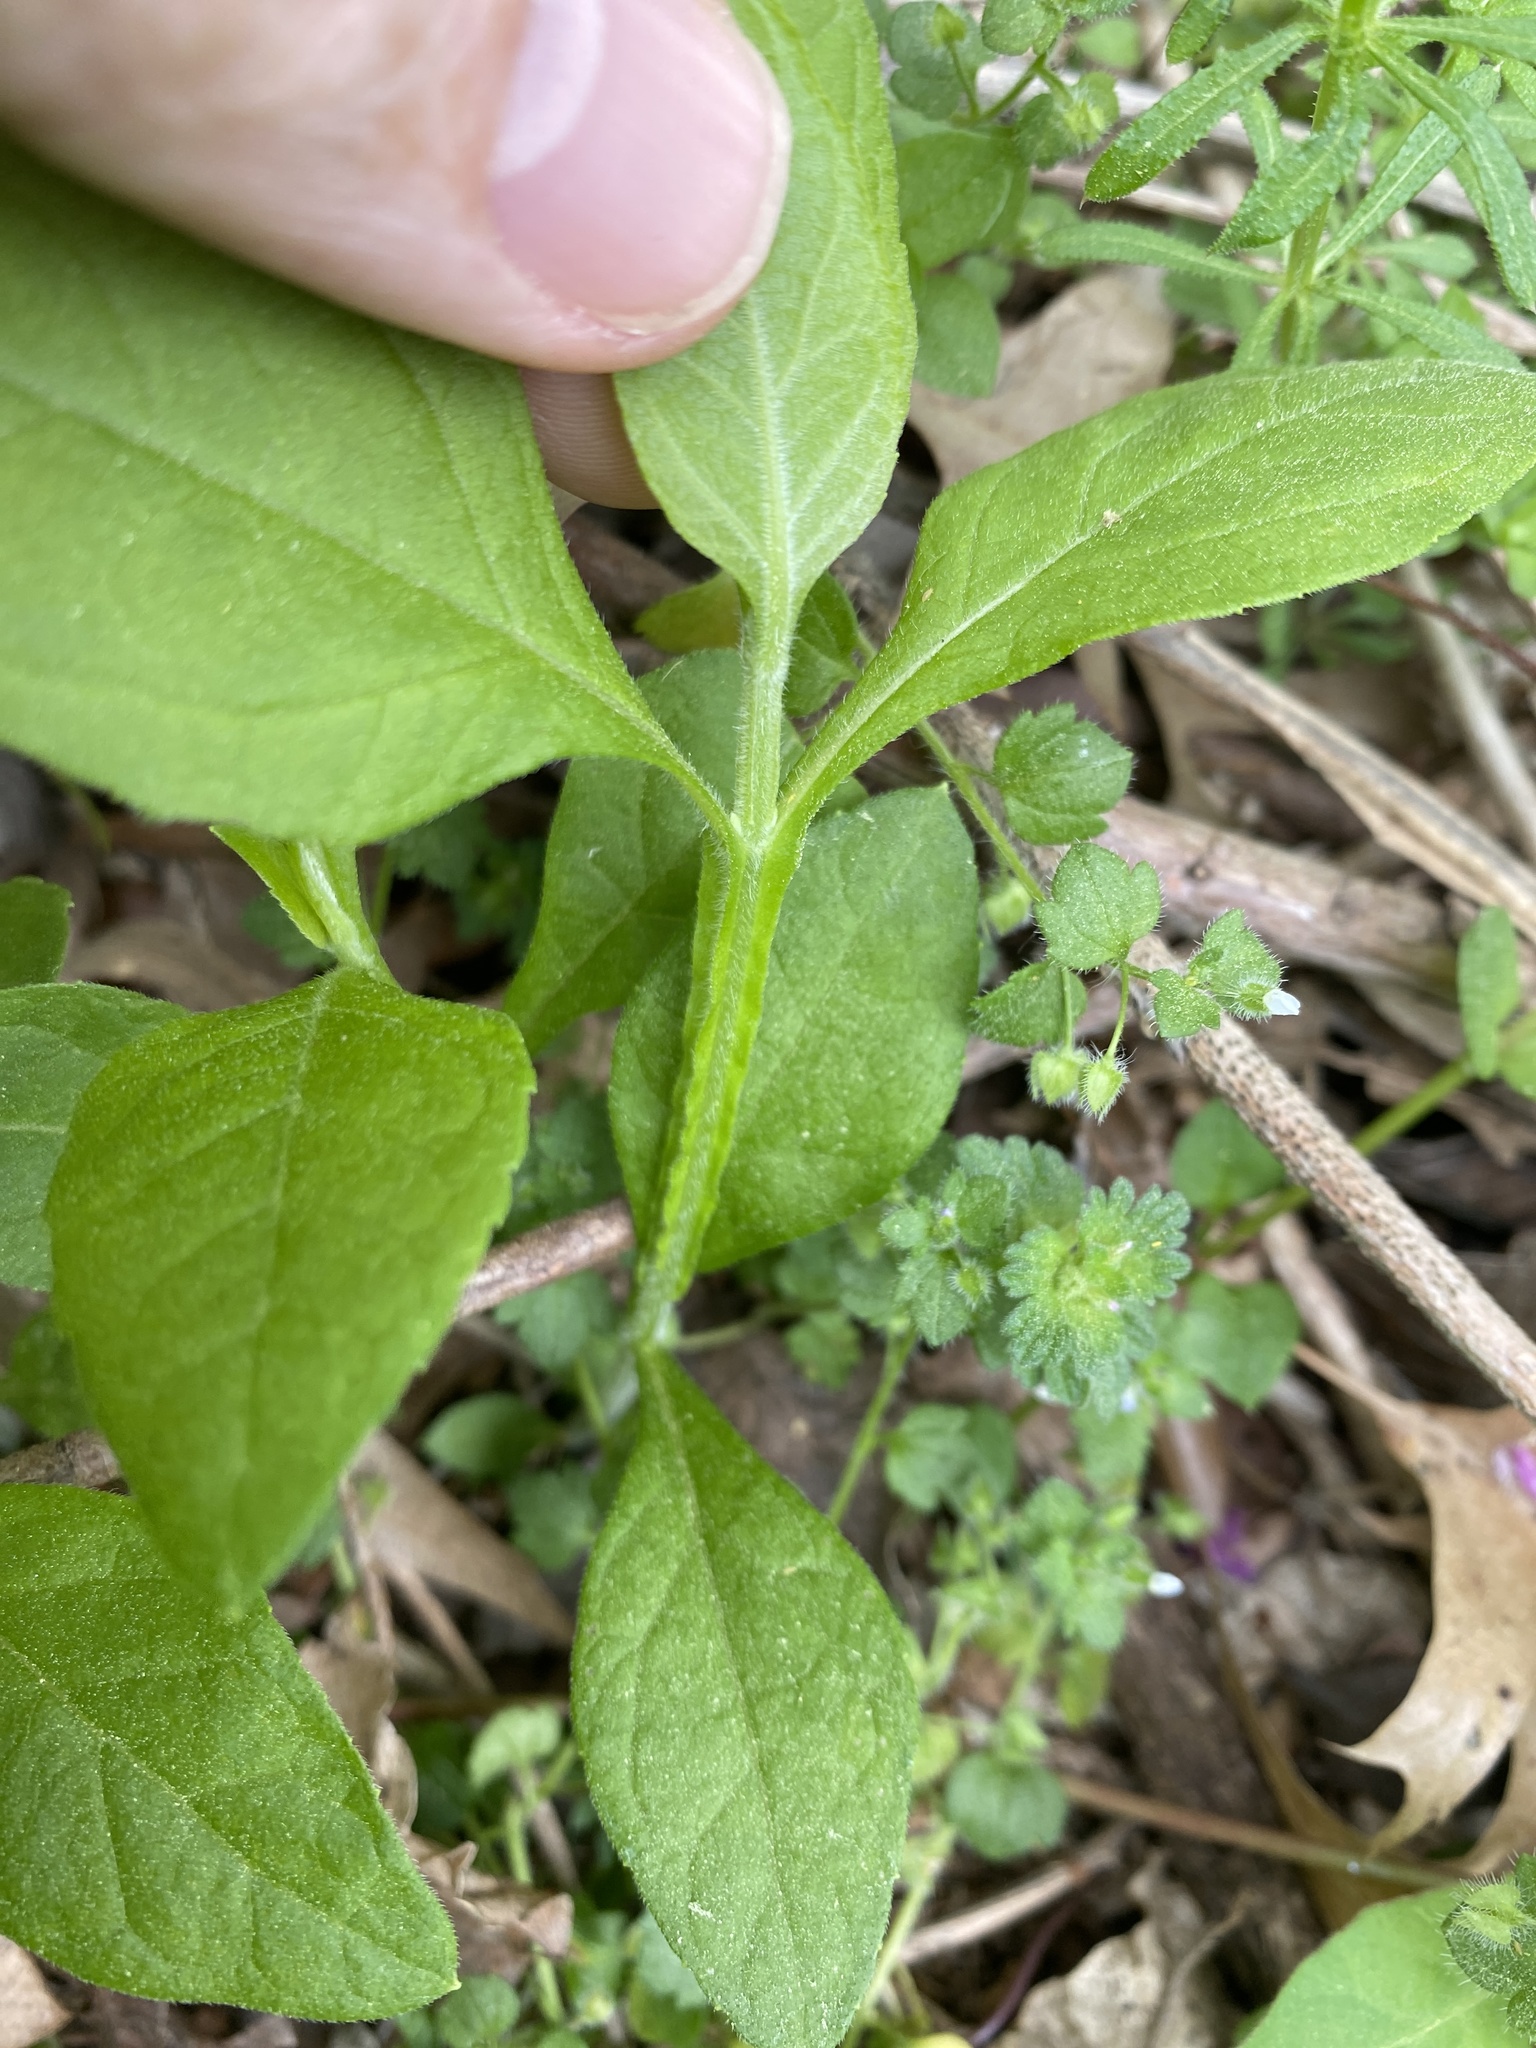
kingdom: Plantae
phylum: Tracheophyta
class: Magnoliopsida
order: Asterales
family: Asteraceae
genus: Verbesina
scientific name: Verbesina occidentalis
